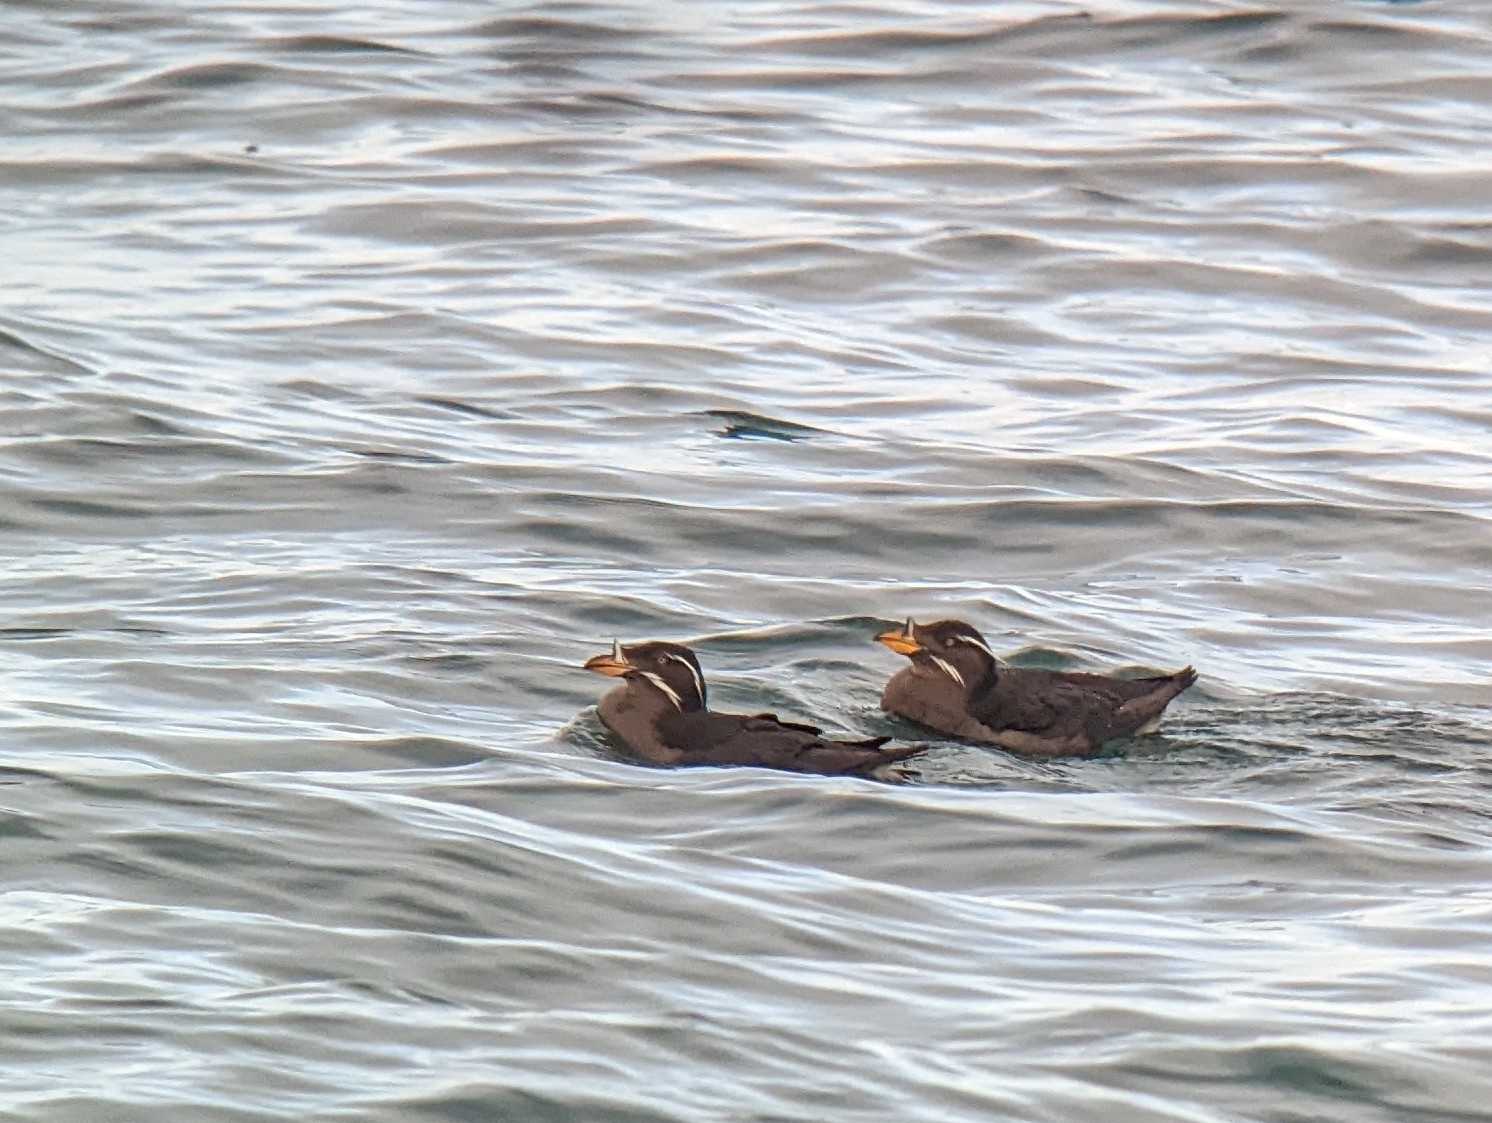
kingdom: Animalia
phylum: Chordata
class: Aves
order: Charadriiformes
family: Alcidae
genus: Cerorhinca
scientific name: Cerorhinca monocerata
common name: Rhinoceros auklet
